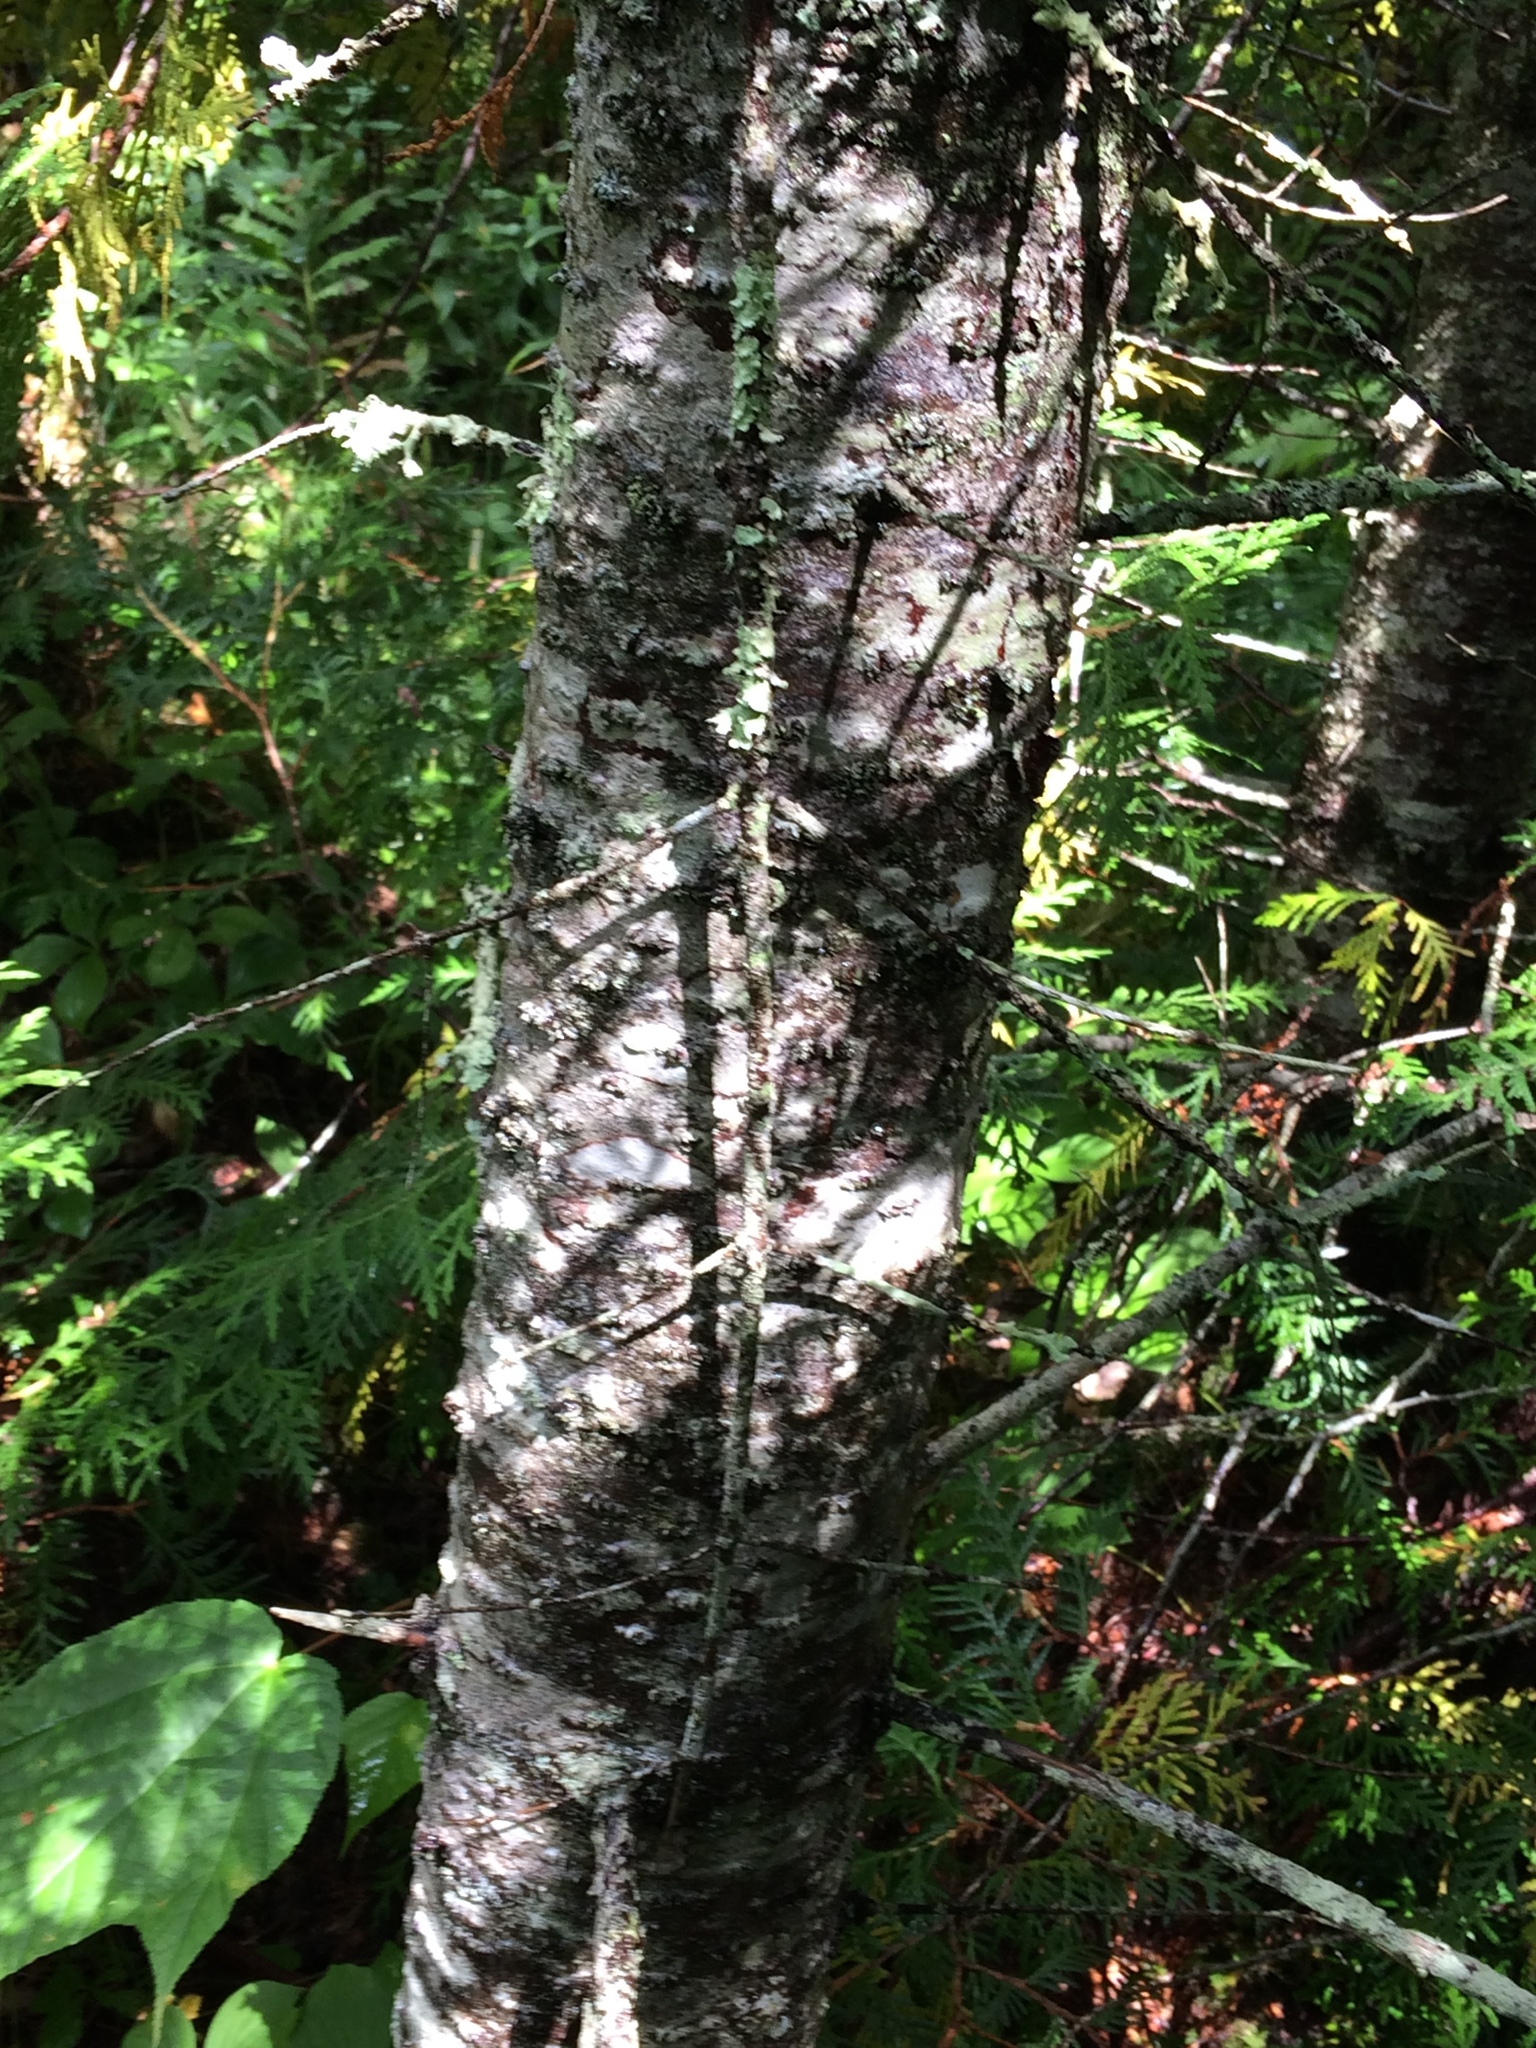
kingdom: Plantae
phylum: Tracheophyta
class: Pinopsida
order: Pinales
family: Pinaceae
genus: Abies
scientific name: Abies balsamea
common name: Balsam fir
